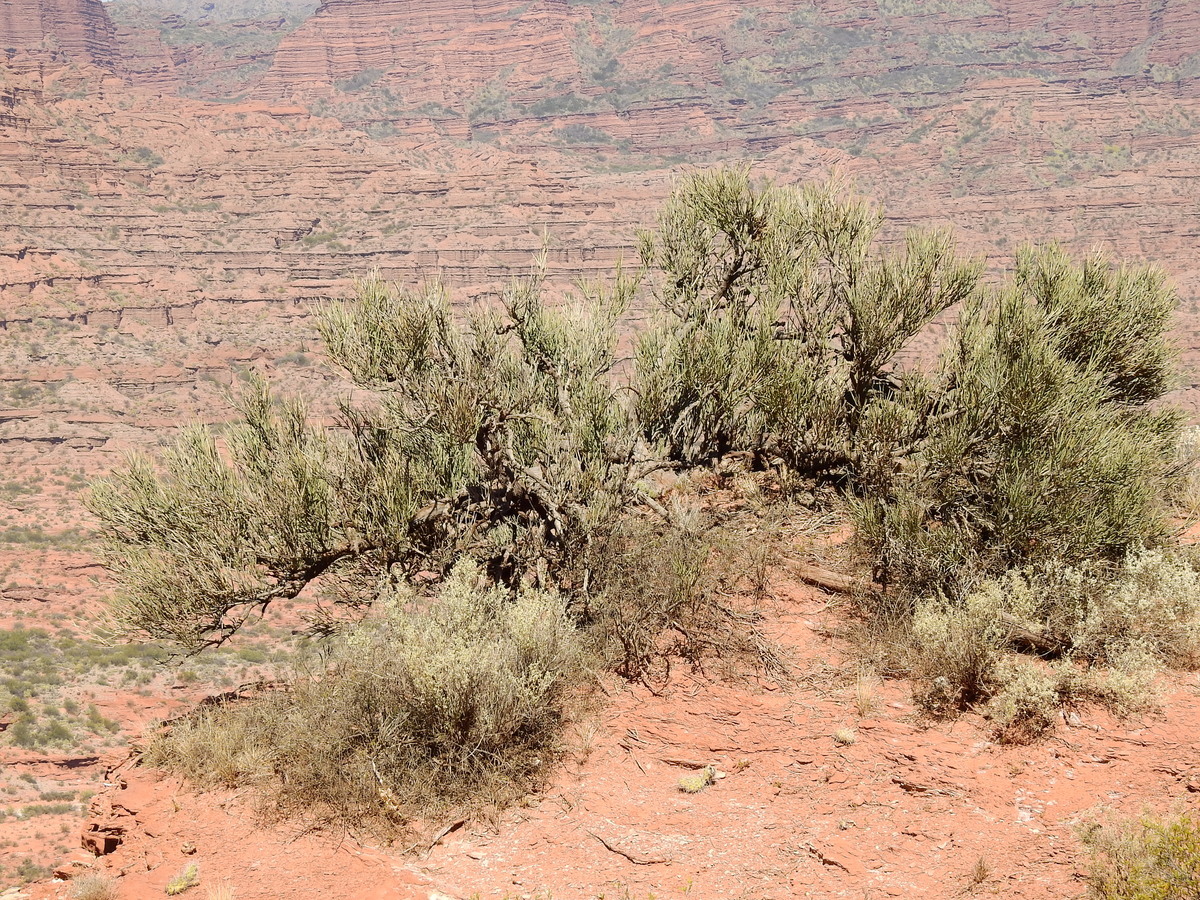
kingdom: Plantae
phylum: Tracheophyta
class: Magnoliopsida
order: Fabales
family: Fabaceae
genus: Ramorinoa
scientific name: Ramorinoa girolae
